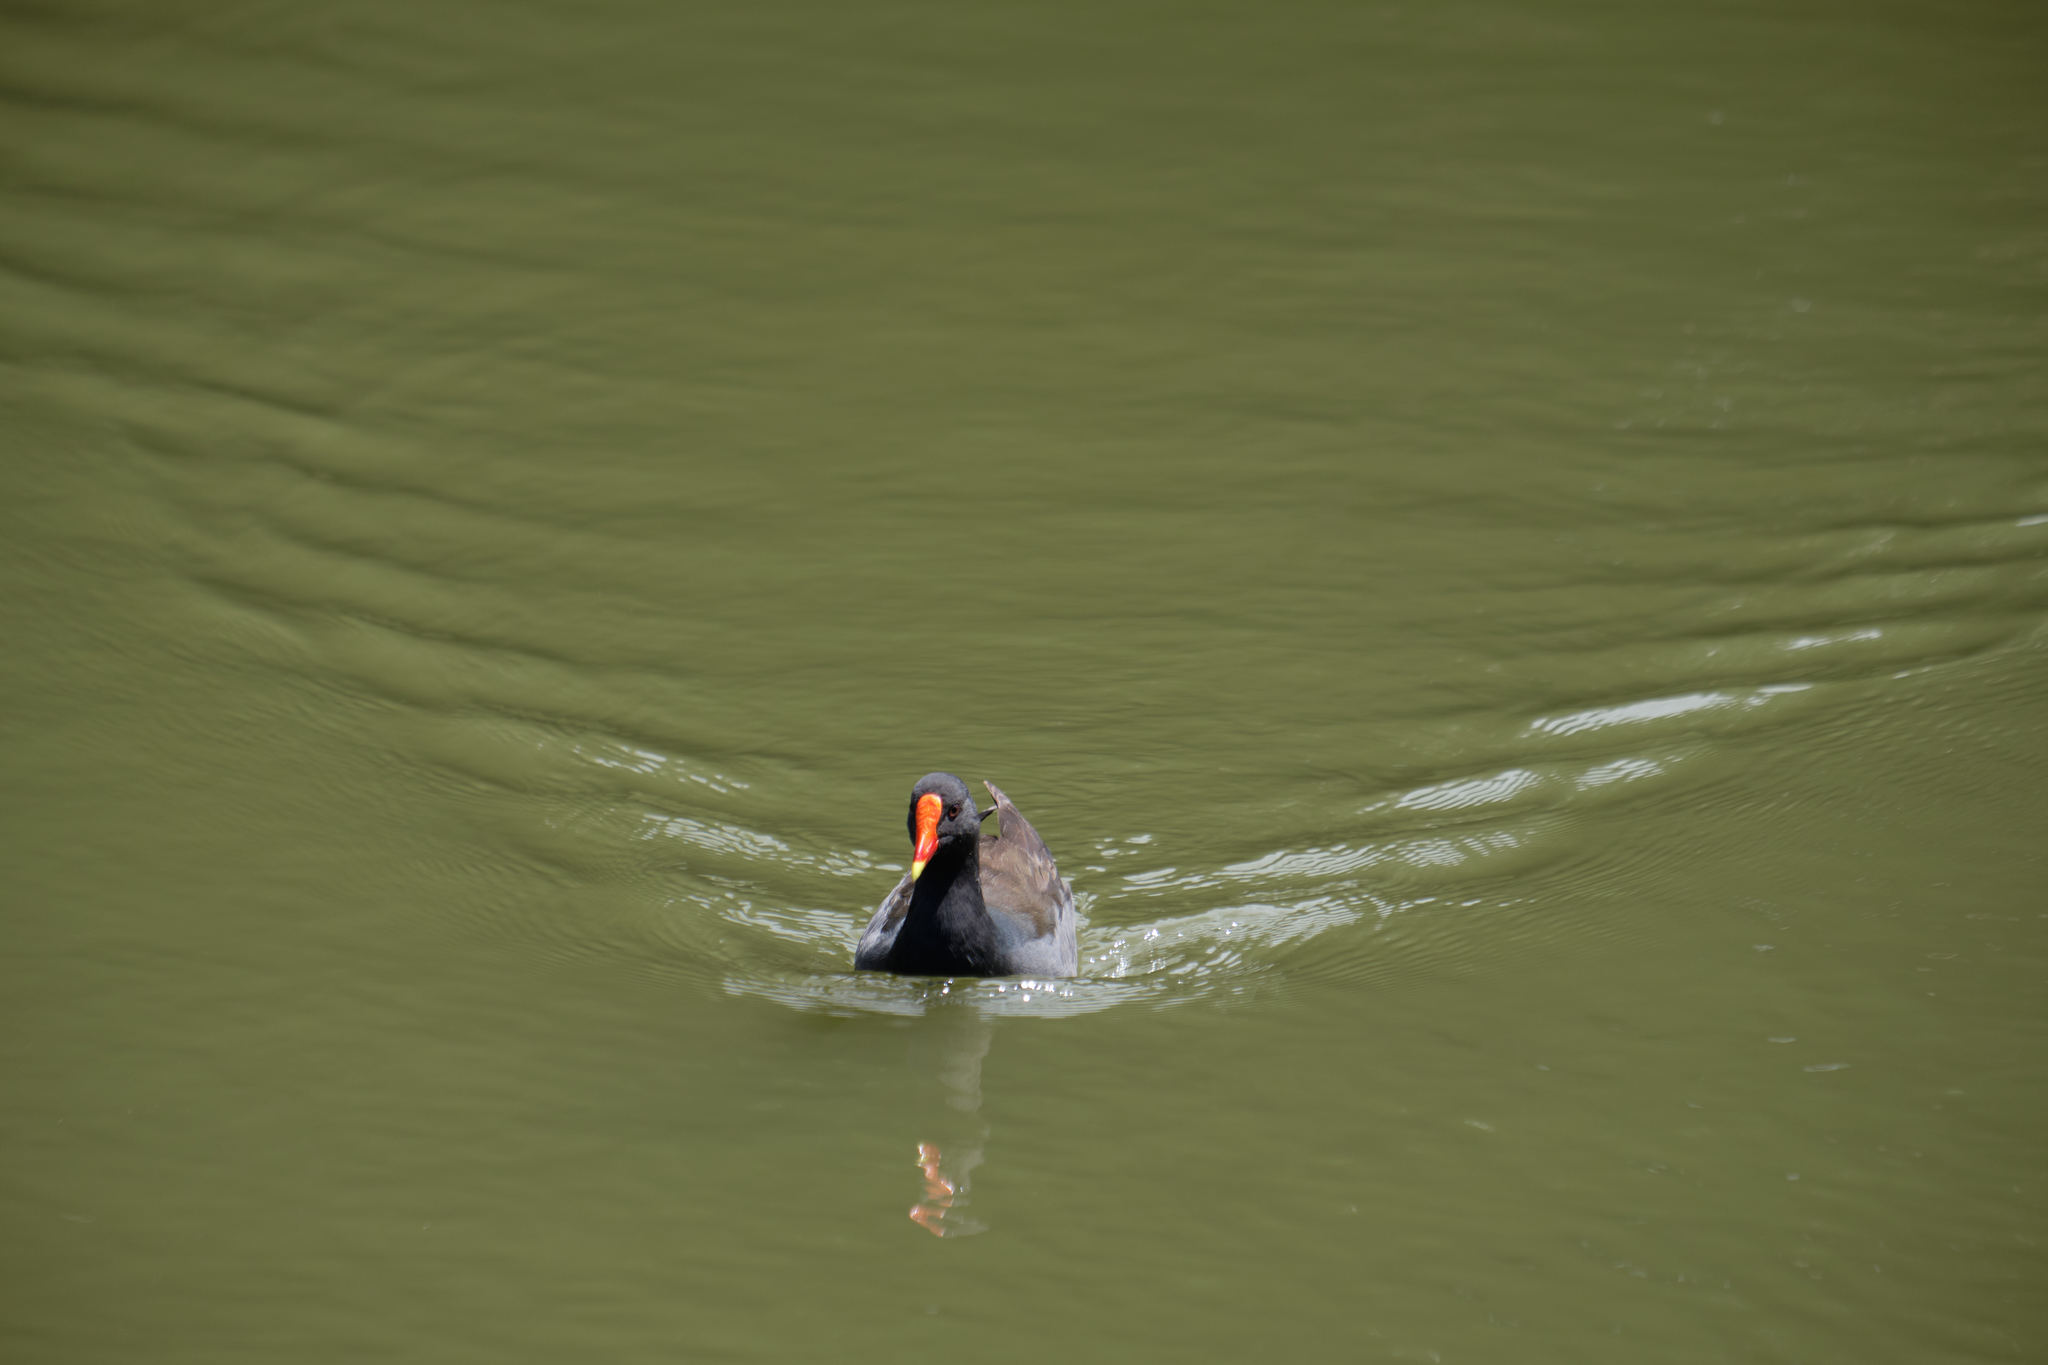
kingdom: Animalia
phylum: Chordata
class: Aves
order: Gruiformes
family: Rallidae
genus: Gallinula
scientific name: Gallinula tenebrosa
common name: Dusky moorhen
